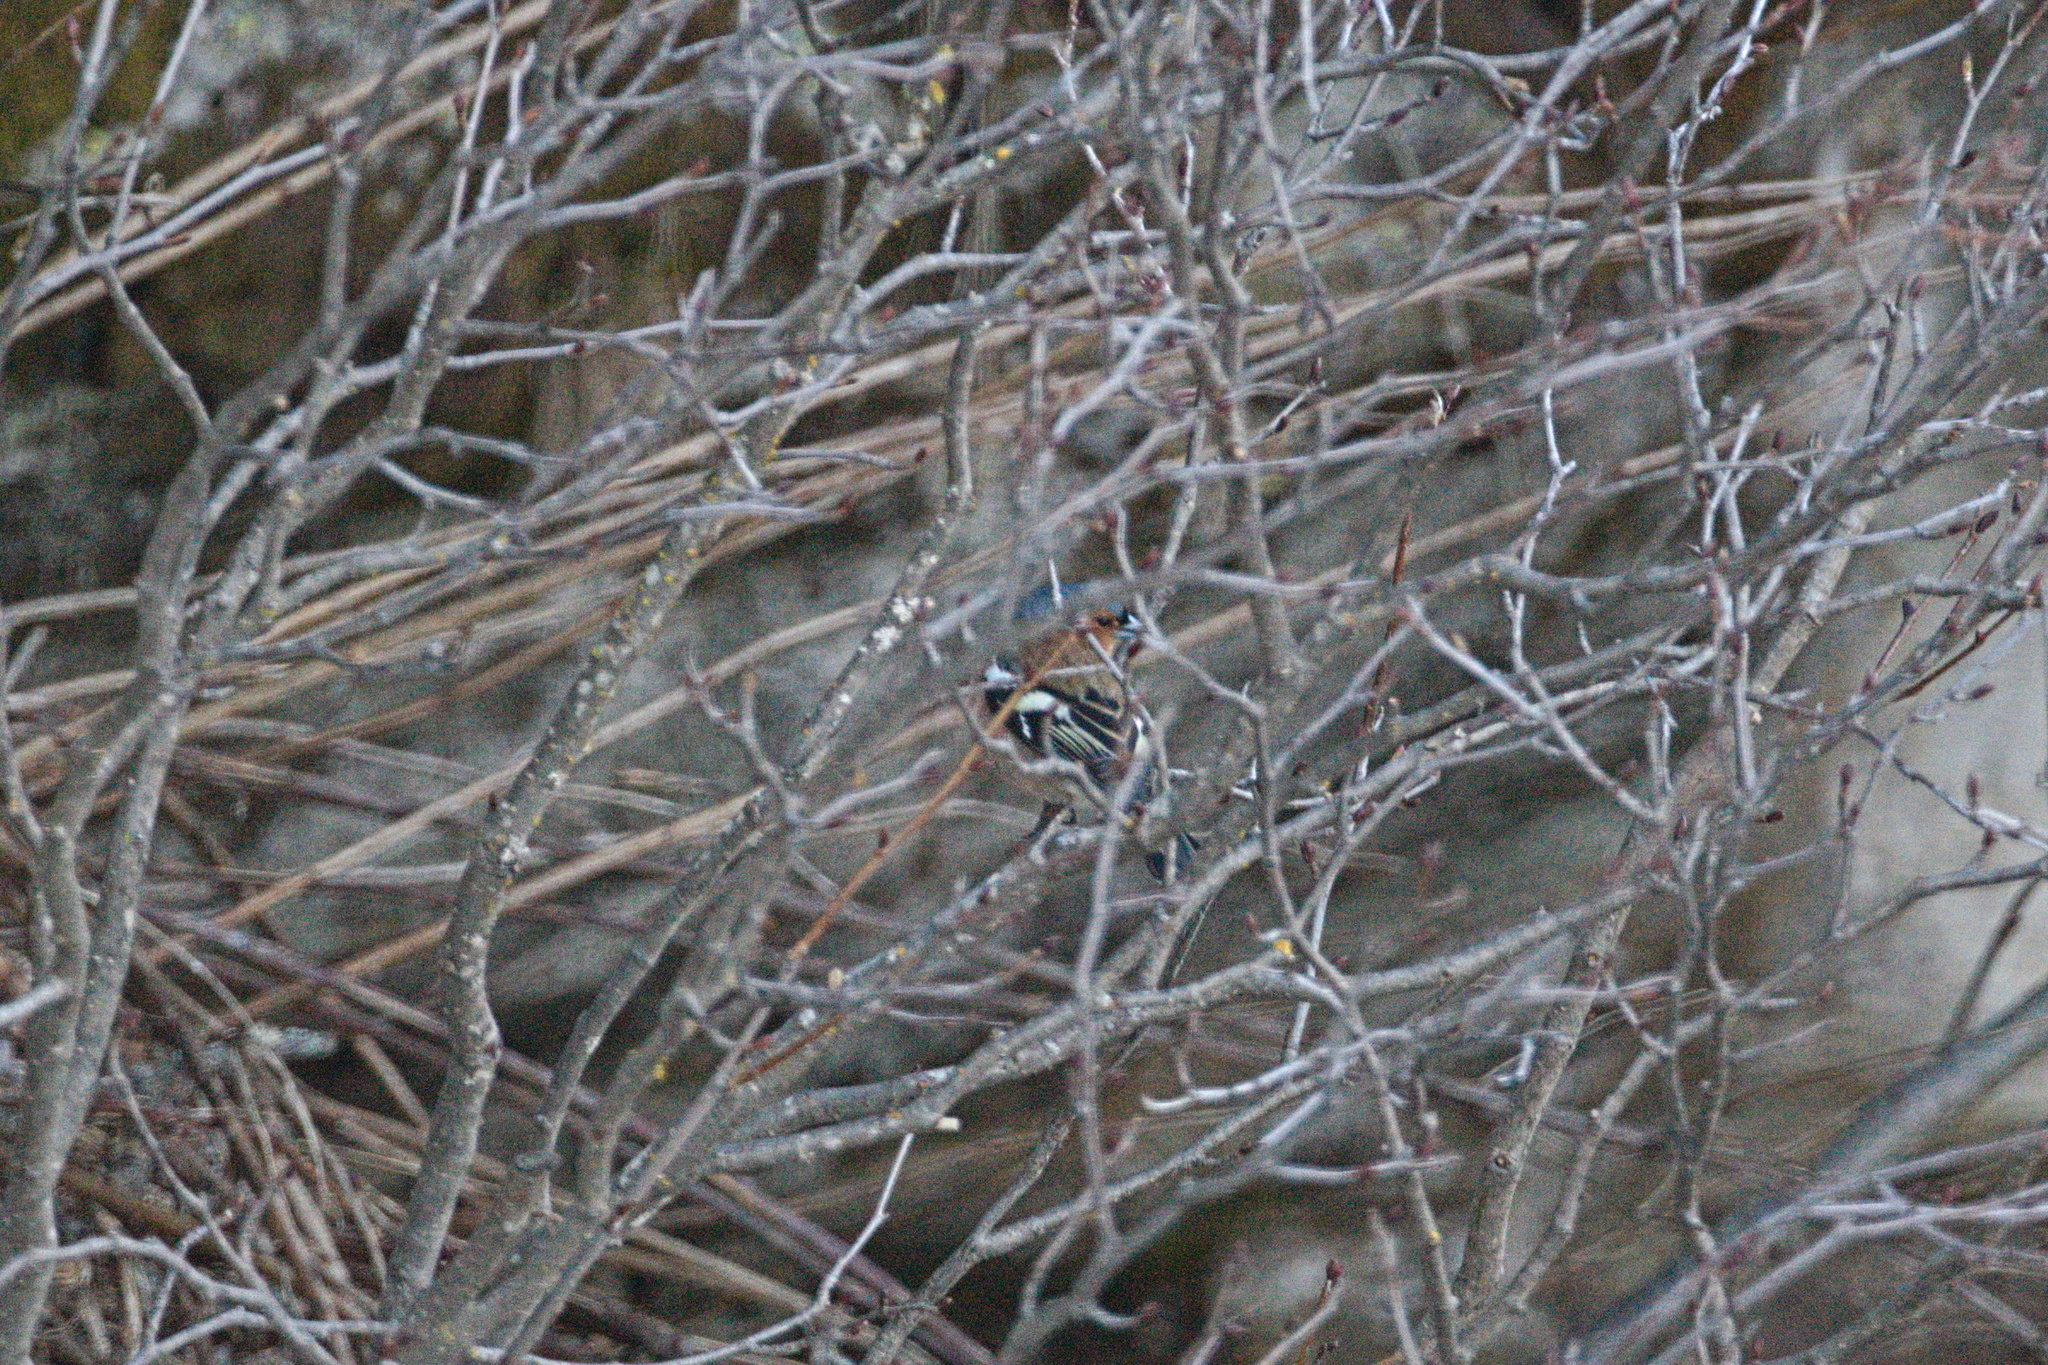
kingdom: Animalia
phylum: Chordata
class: Aves
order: Passeriformes
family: Fringillidae
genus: Fringilla
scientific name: Fringilla coelebs
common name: Common chaffinch
